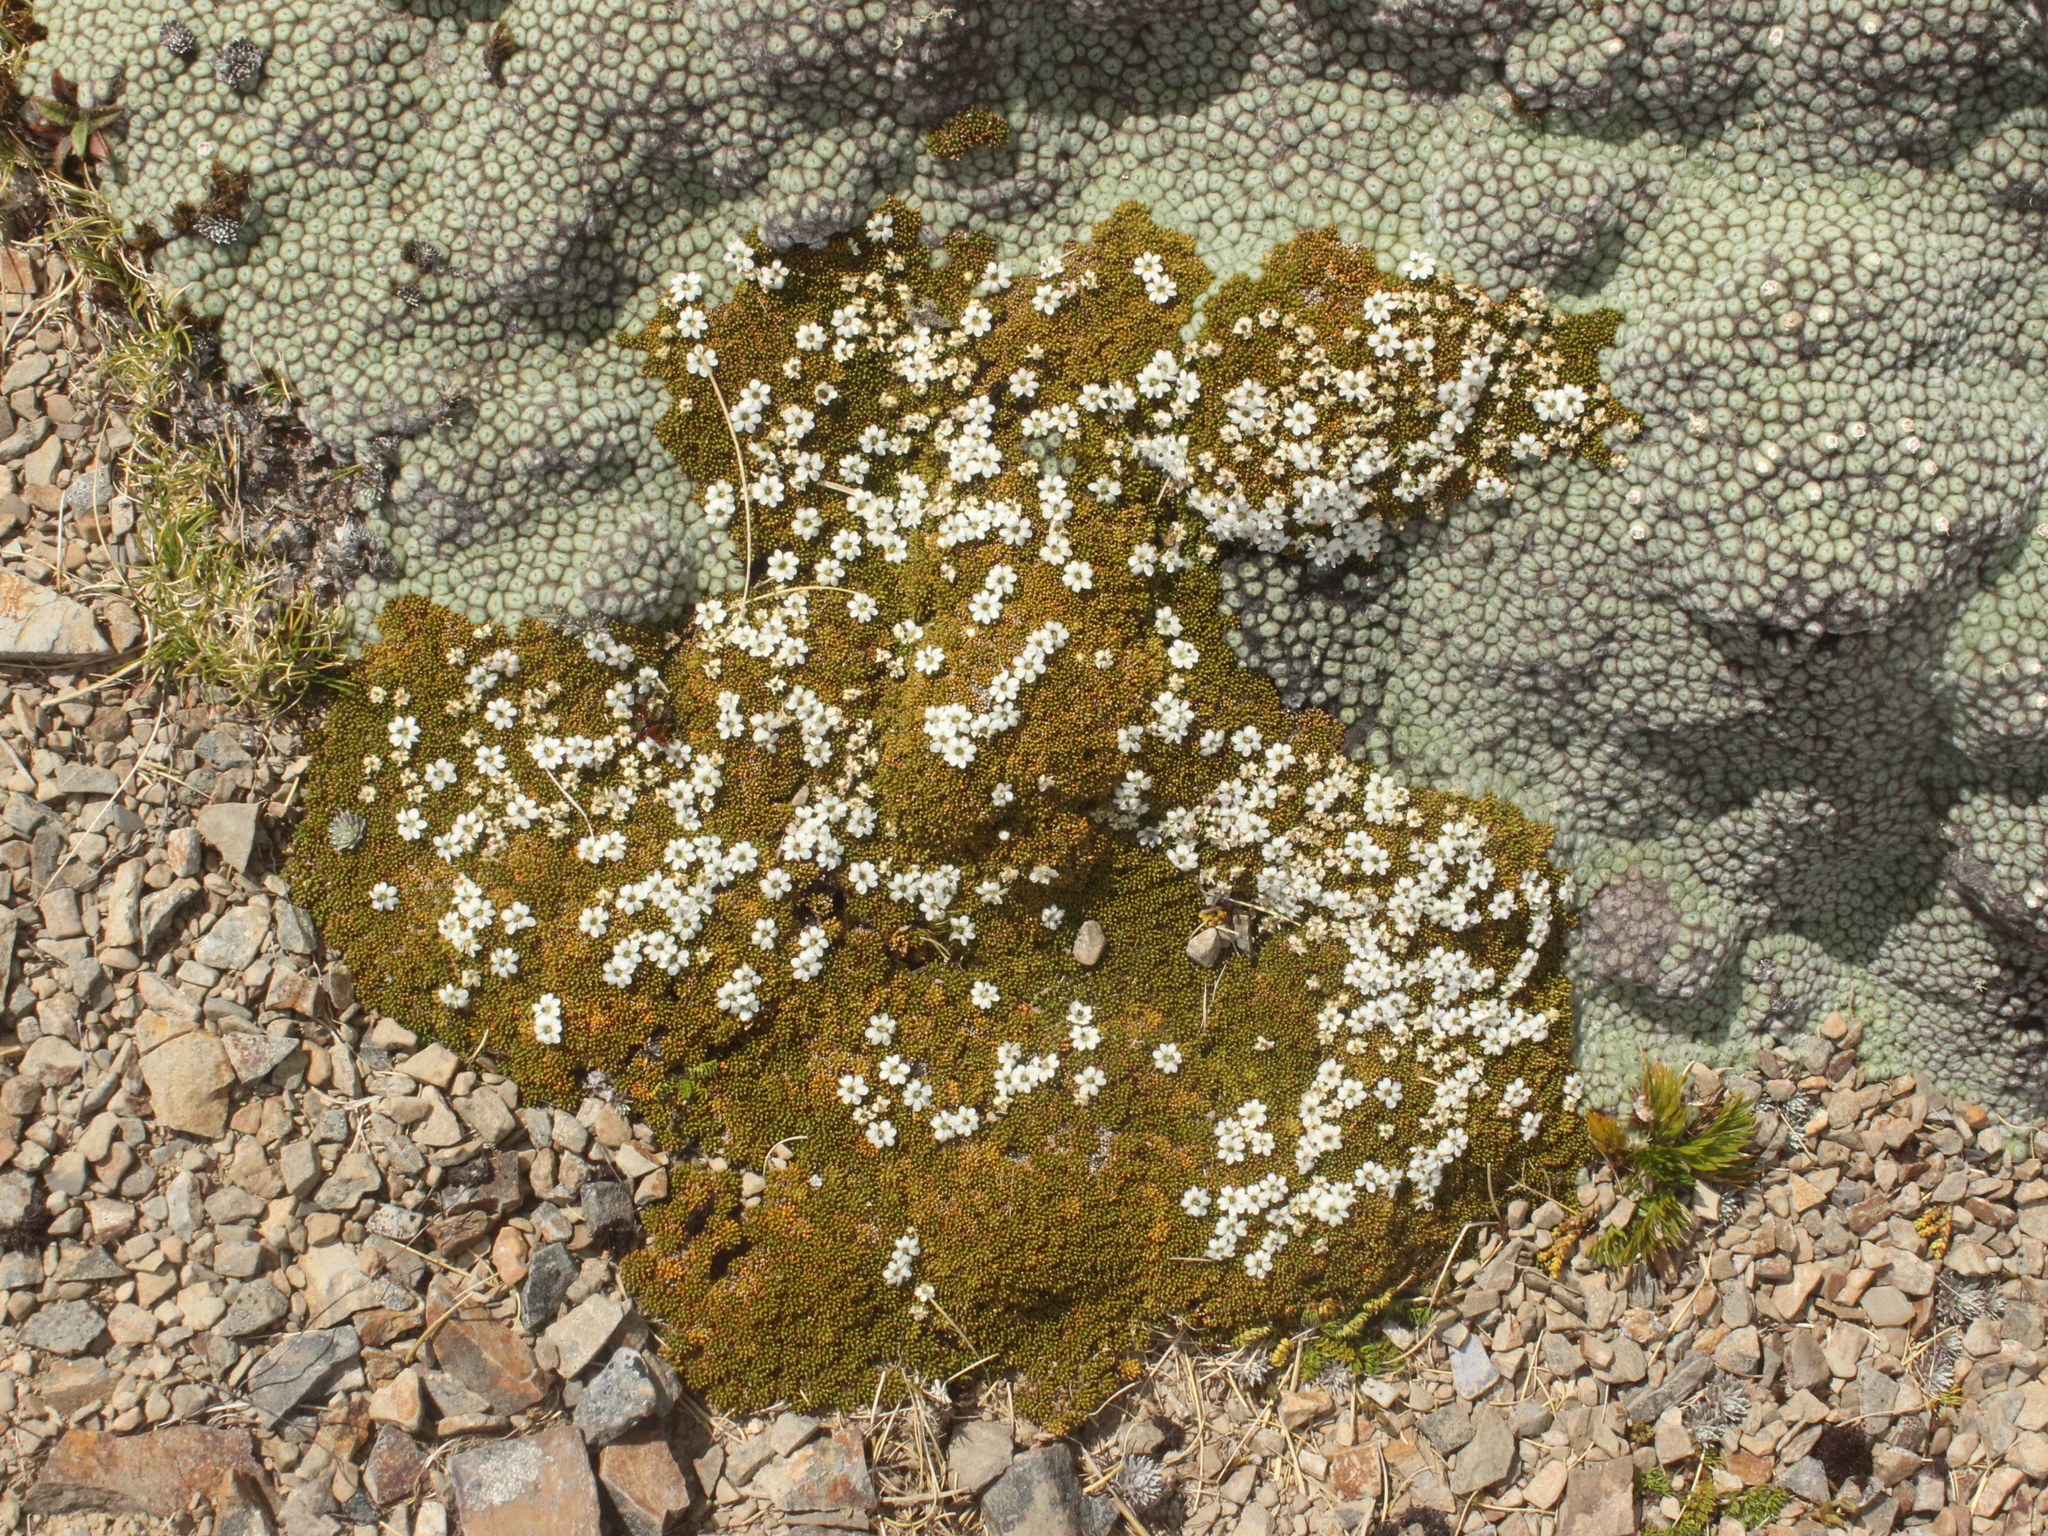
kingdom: Plantae
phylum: Tracheophyta
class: Magnoliopsida
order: Asterales
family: Stylidiaceae
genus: Phyllachne
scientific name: Phyllachne colensoi
